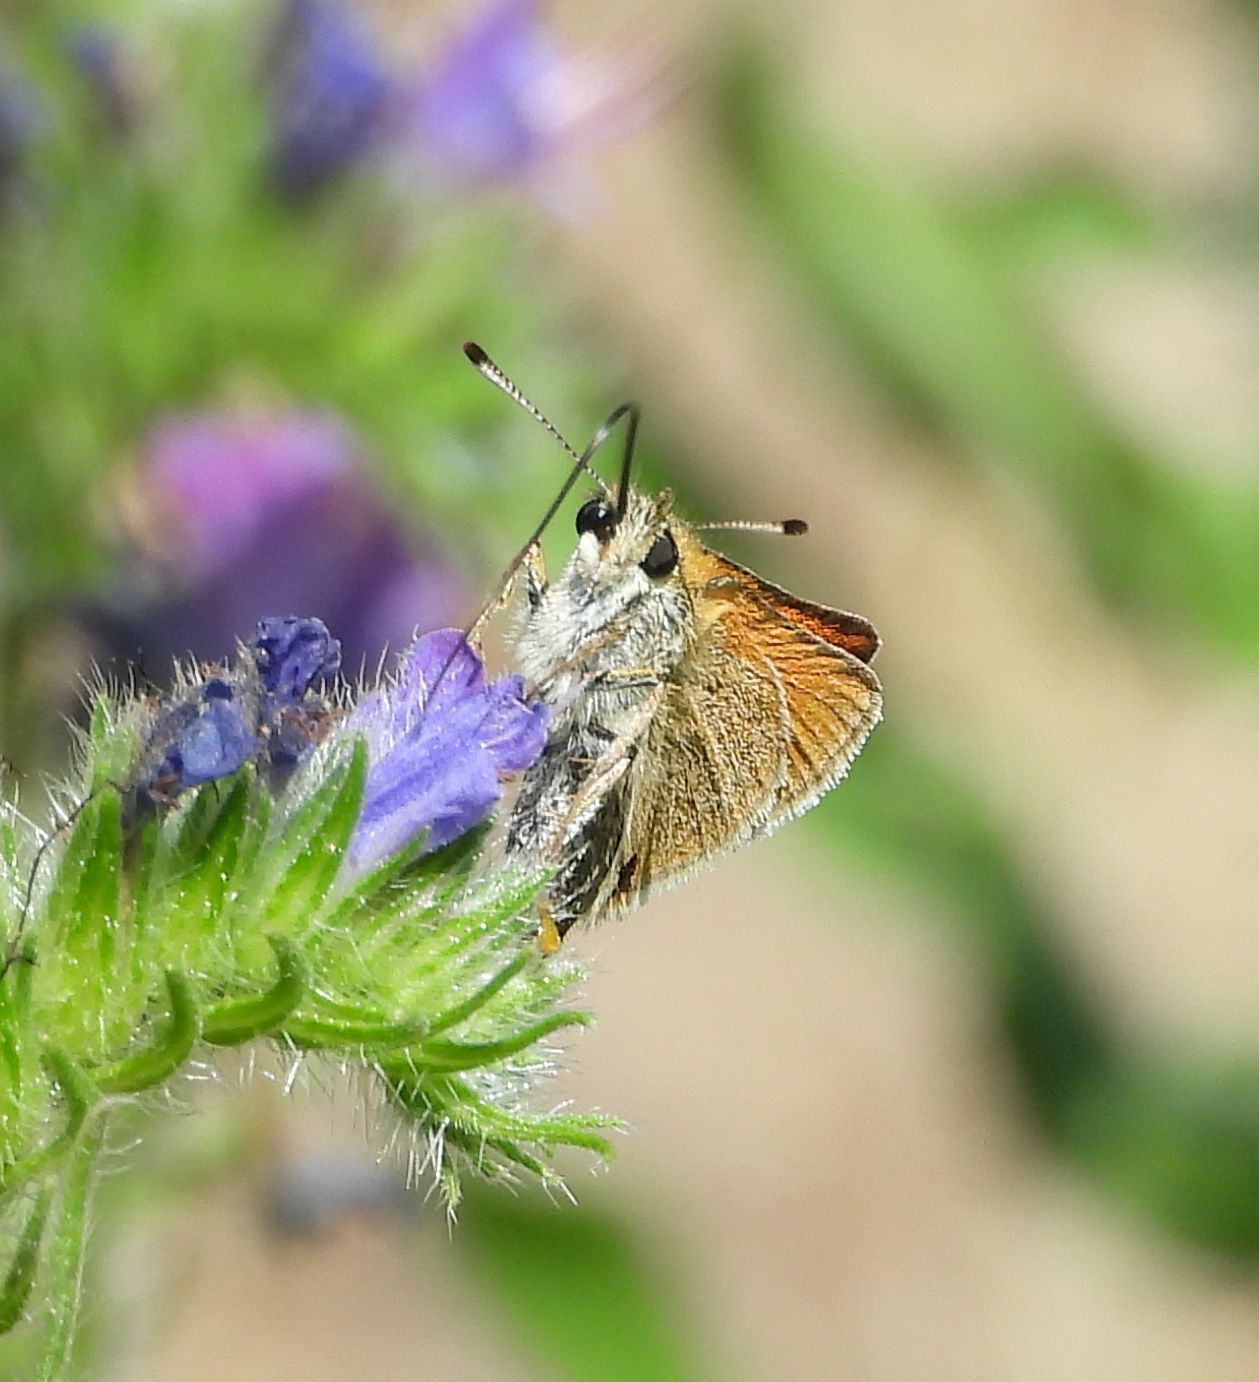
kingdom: Animalia
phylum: Arthropoda
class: Insecta
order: Lepidoptera
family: Hesperiidae
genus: Thymelicus
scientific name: Thymelicus lineola
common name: Essex skipper
